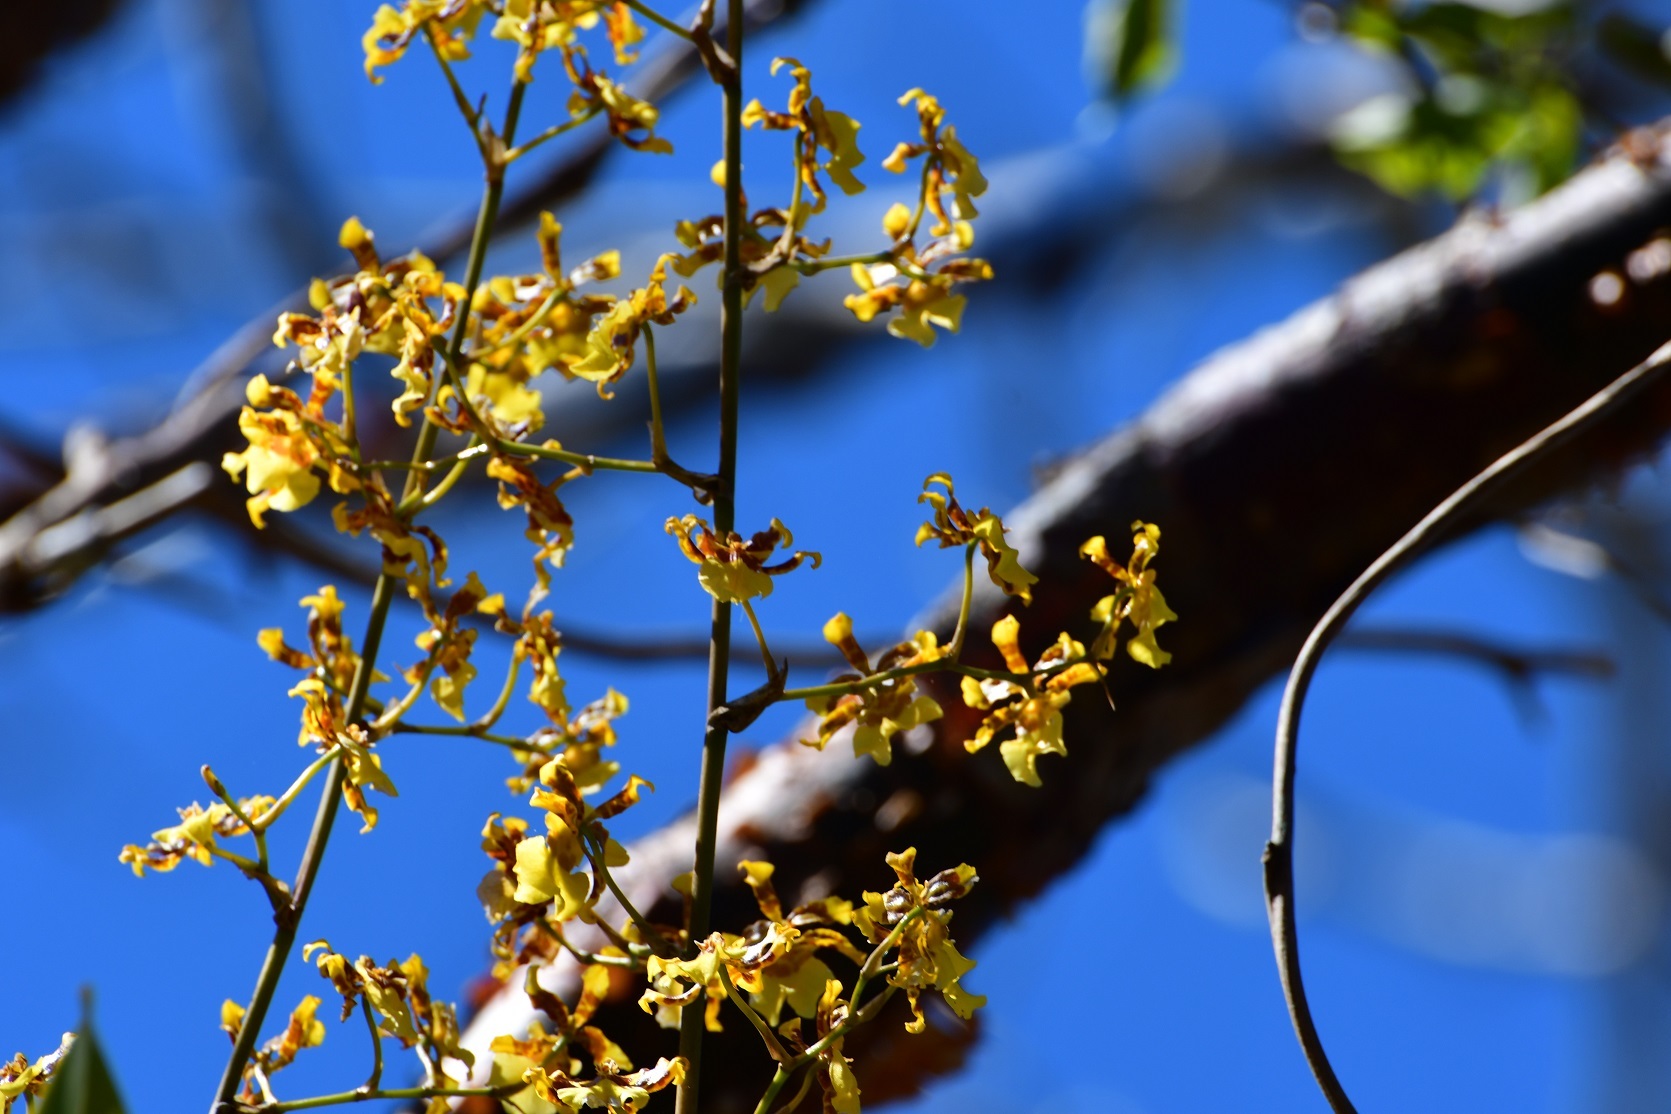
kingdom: Plantae
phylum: Tracheophyta
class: Liliopsida
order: Asparagales
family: Orchidaceae
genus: Oncidium
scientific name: Oncidium sphacelatum
